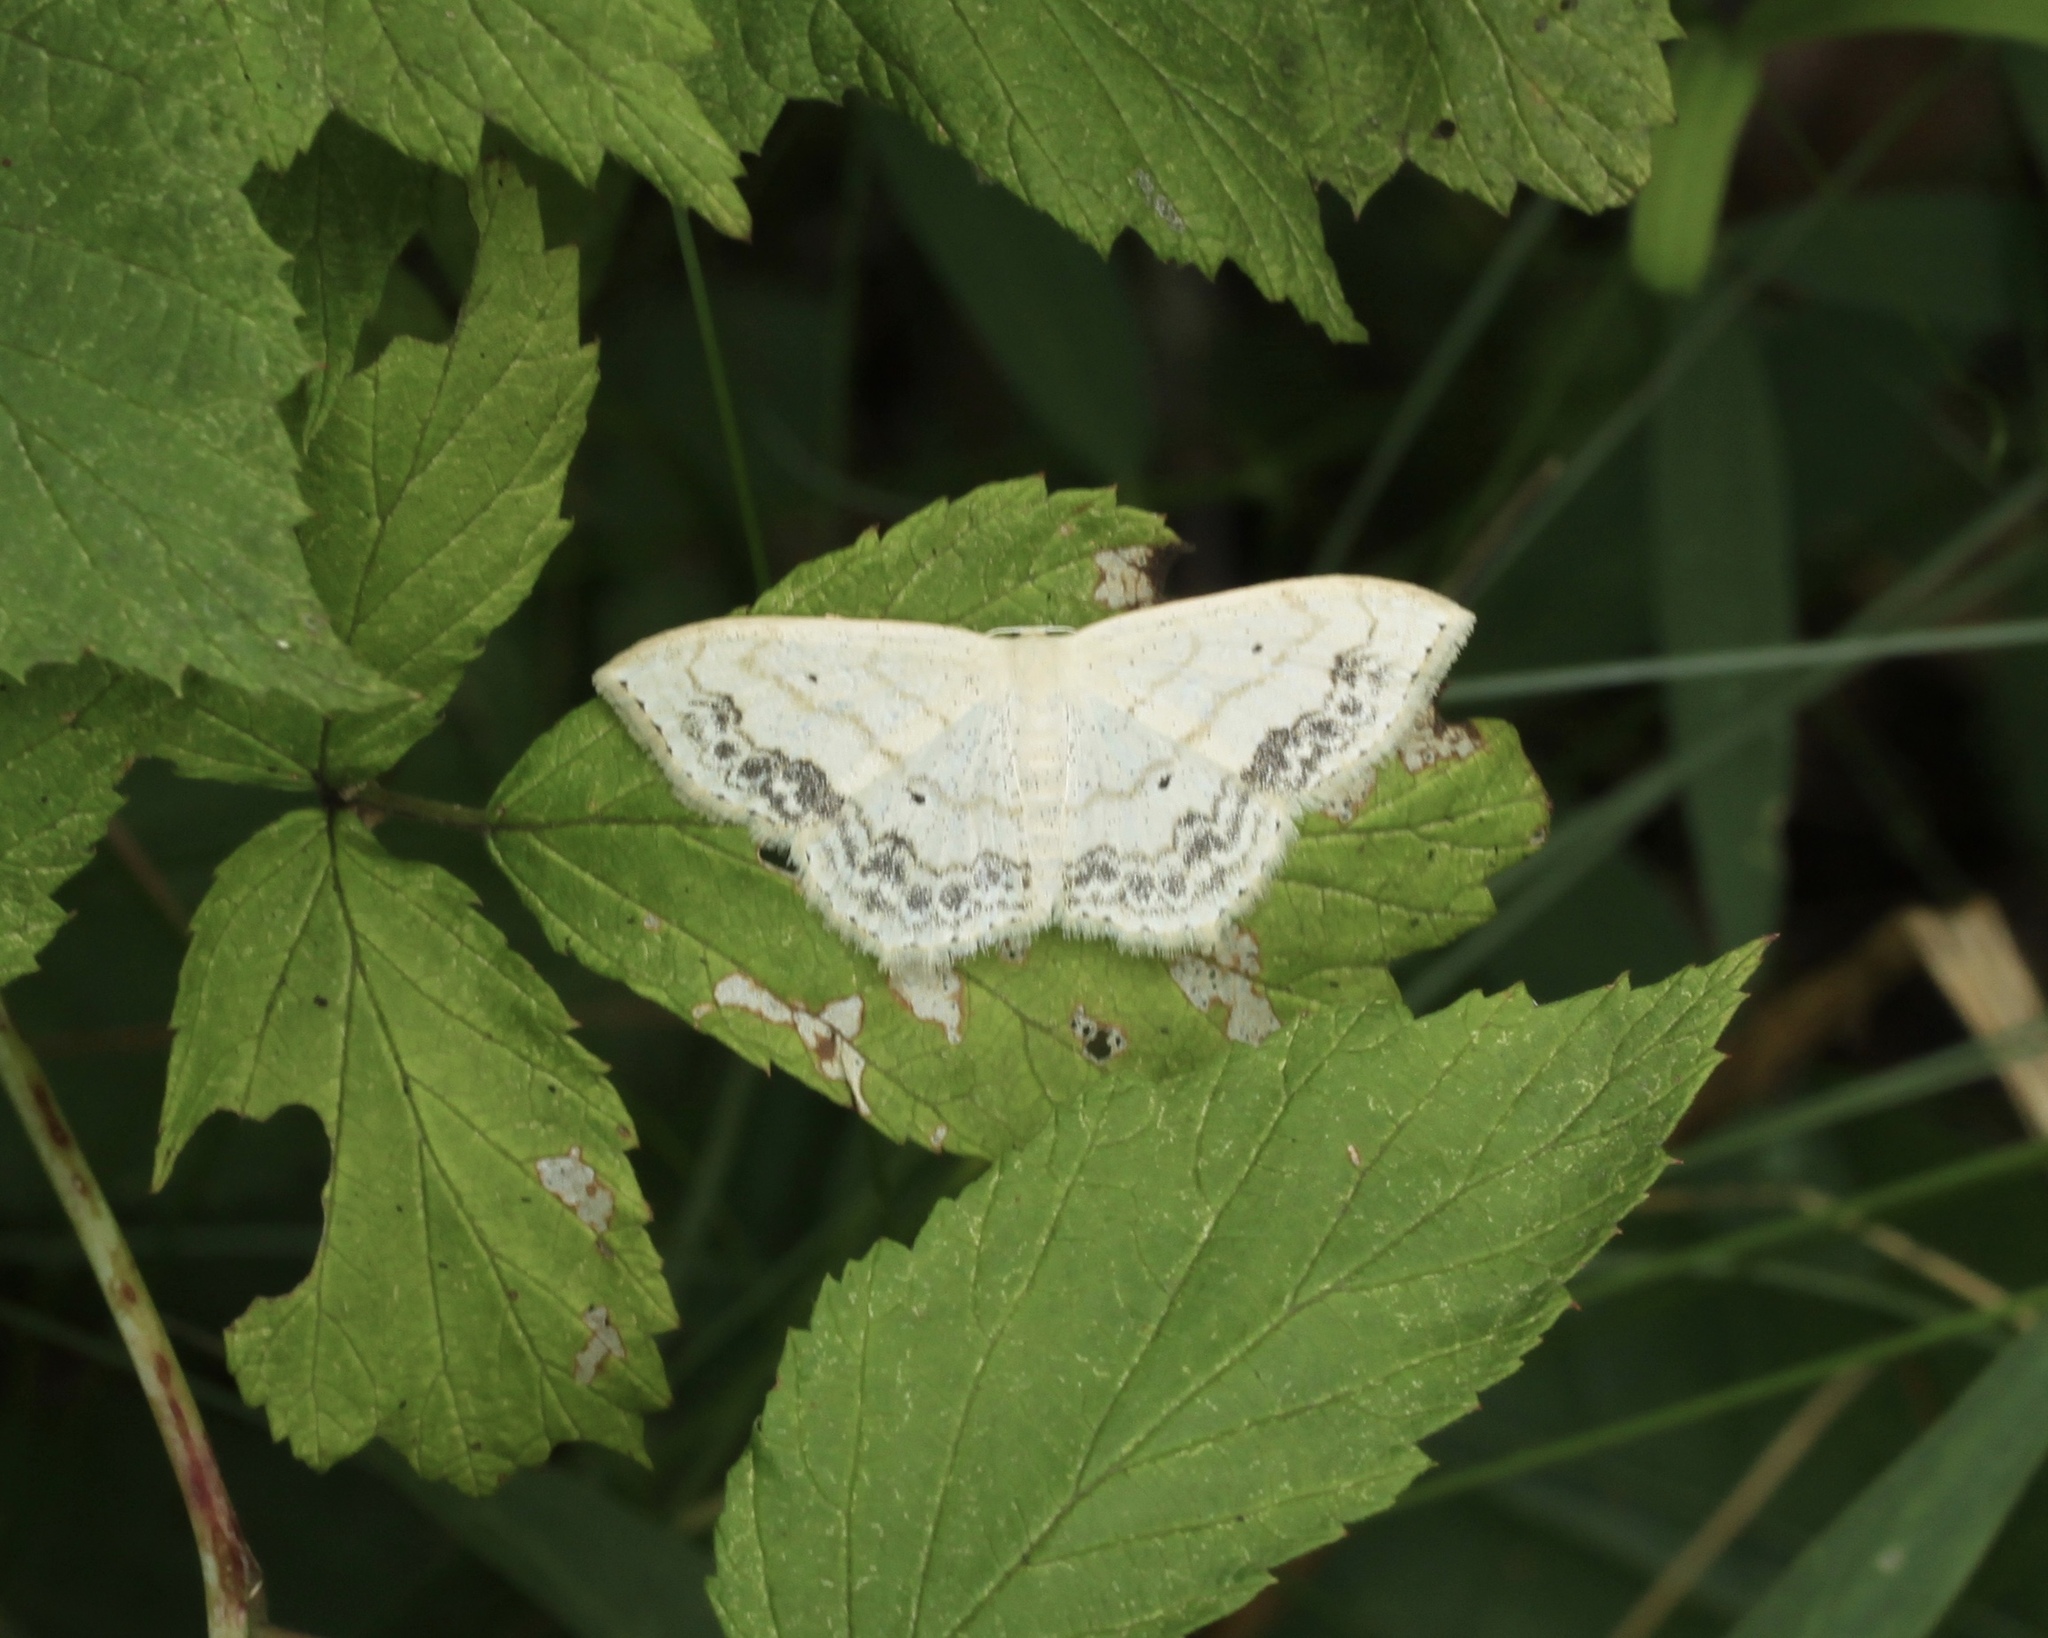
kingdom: Animalia
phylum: Arthropoda
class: Insecta
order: Lepidoptera
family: Geometridae
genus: Scopula
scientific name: Scopula limboundata
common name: Large lace border
